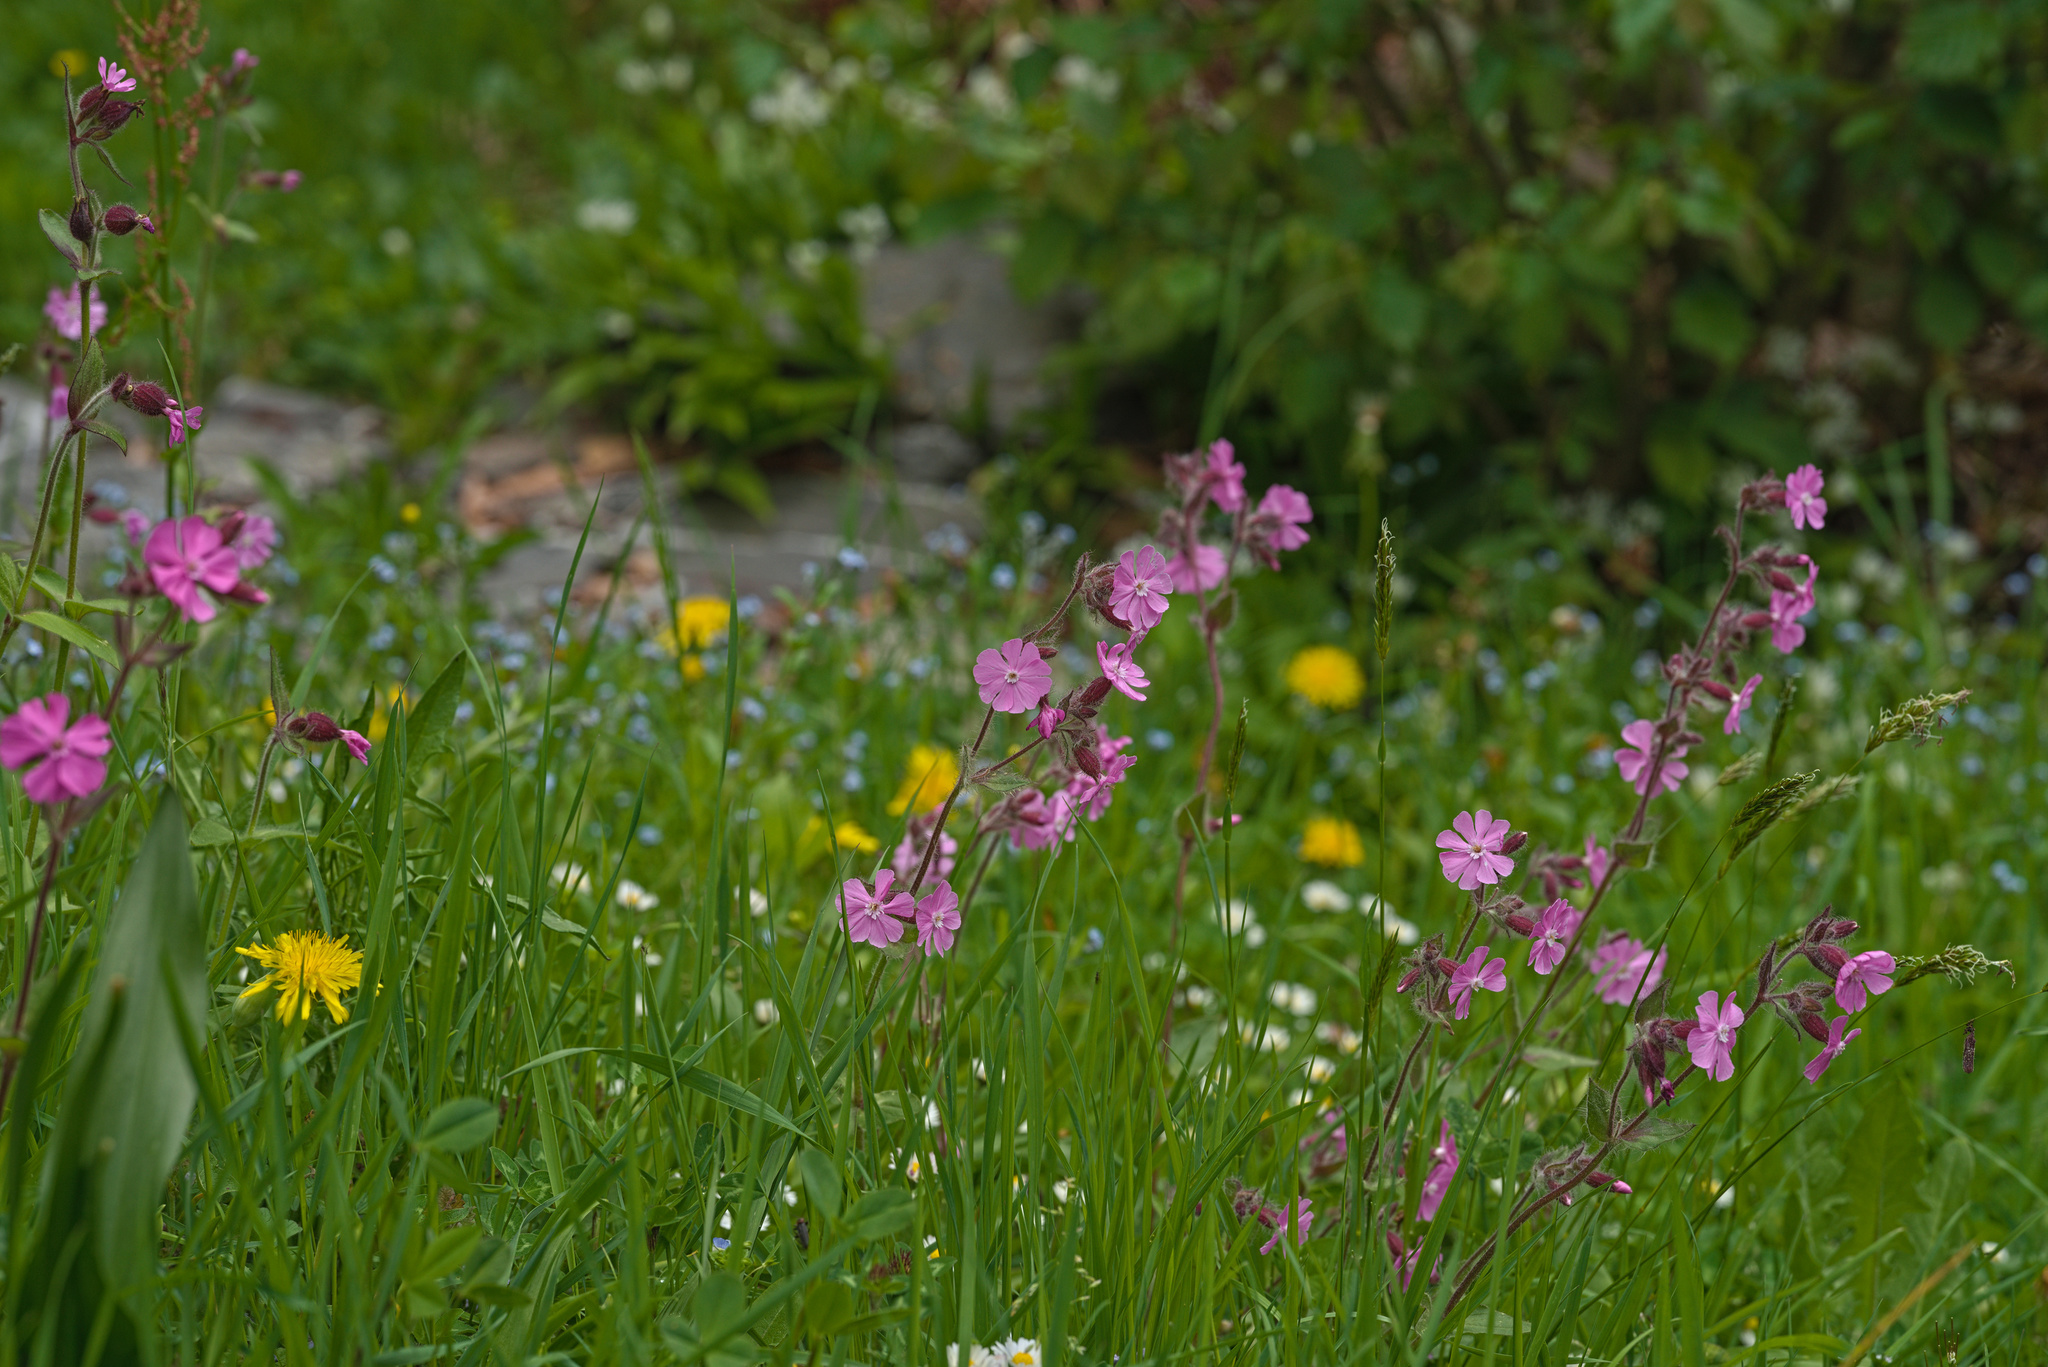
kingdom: Plantae
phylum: Tracheophyta
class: Magnoliopsida
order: Caryophyllales
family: Caryophyllaceae
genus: Silene
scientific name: Silene dioica
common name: Red campion
